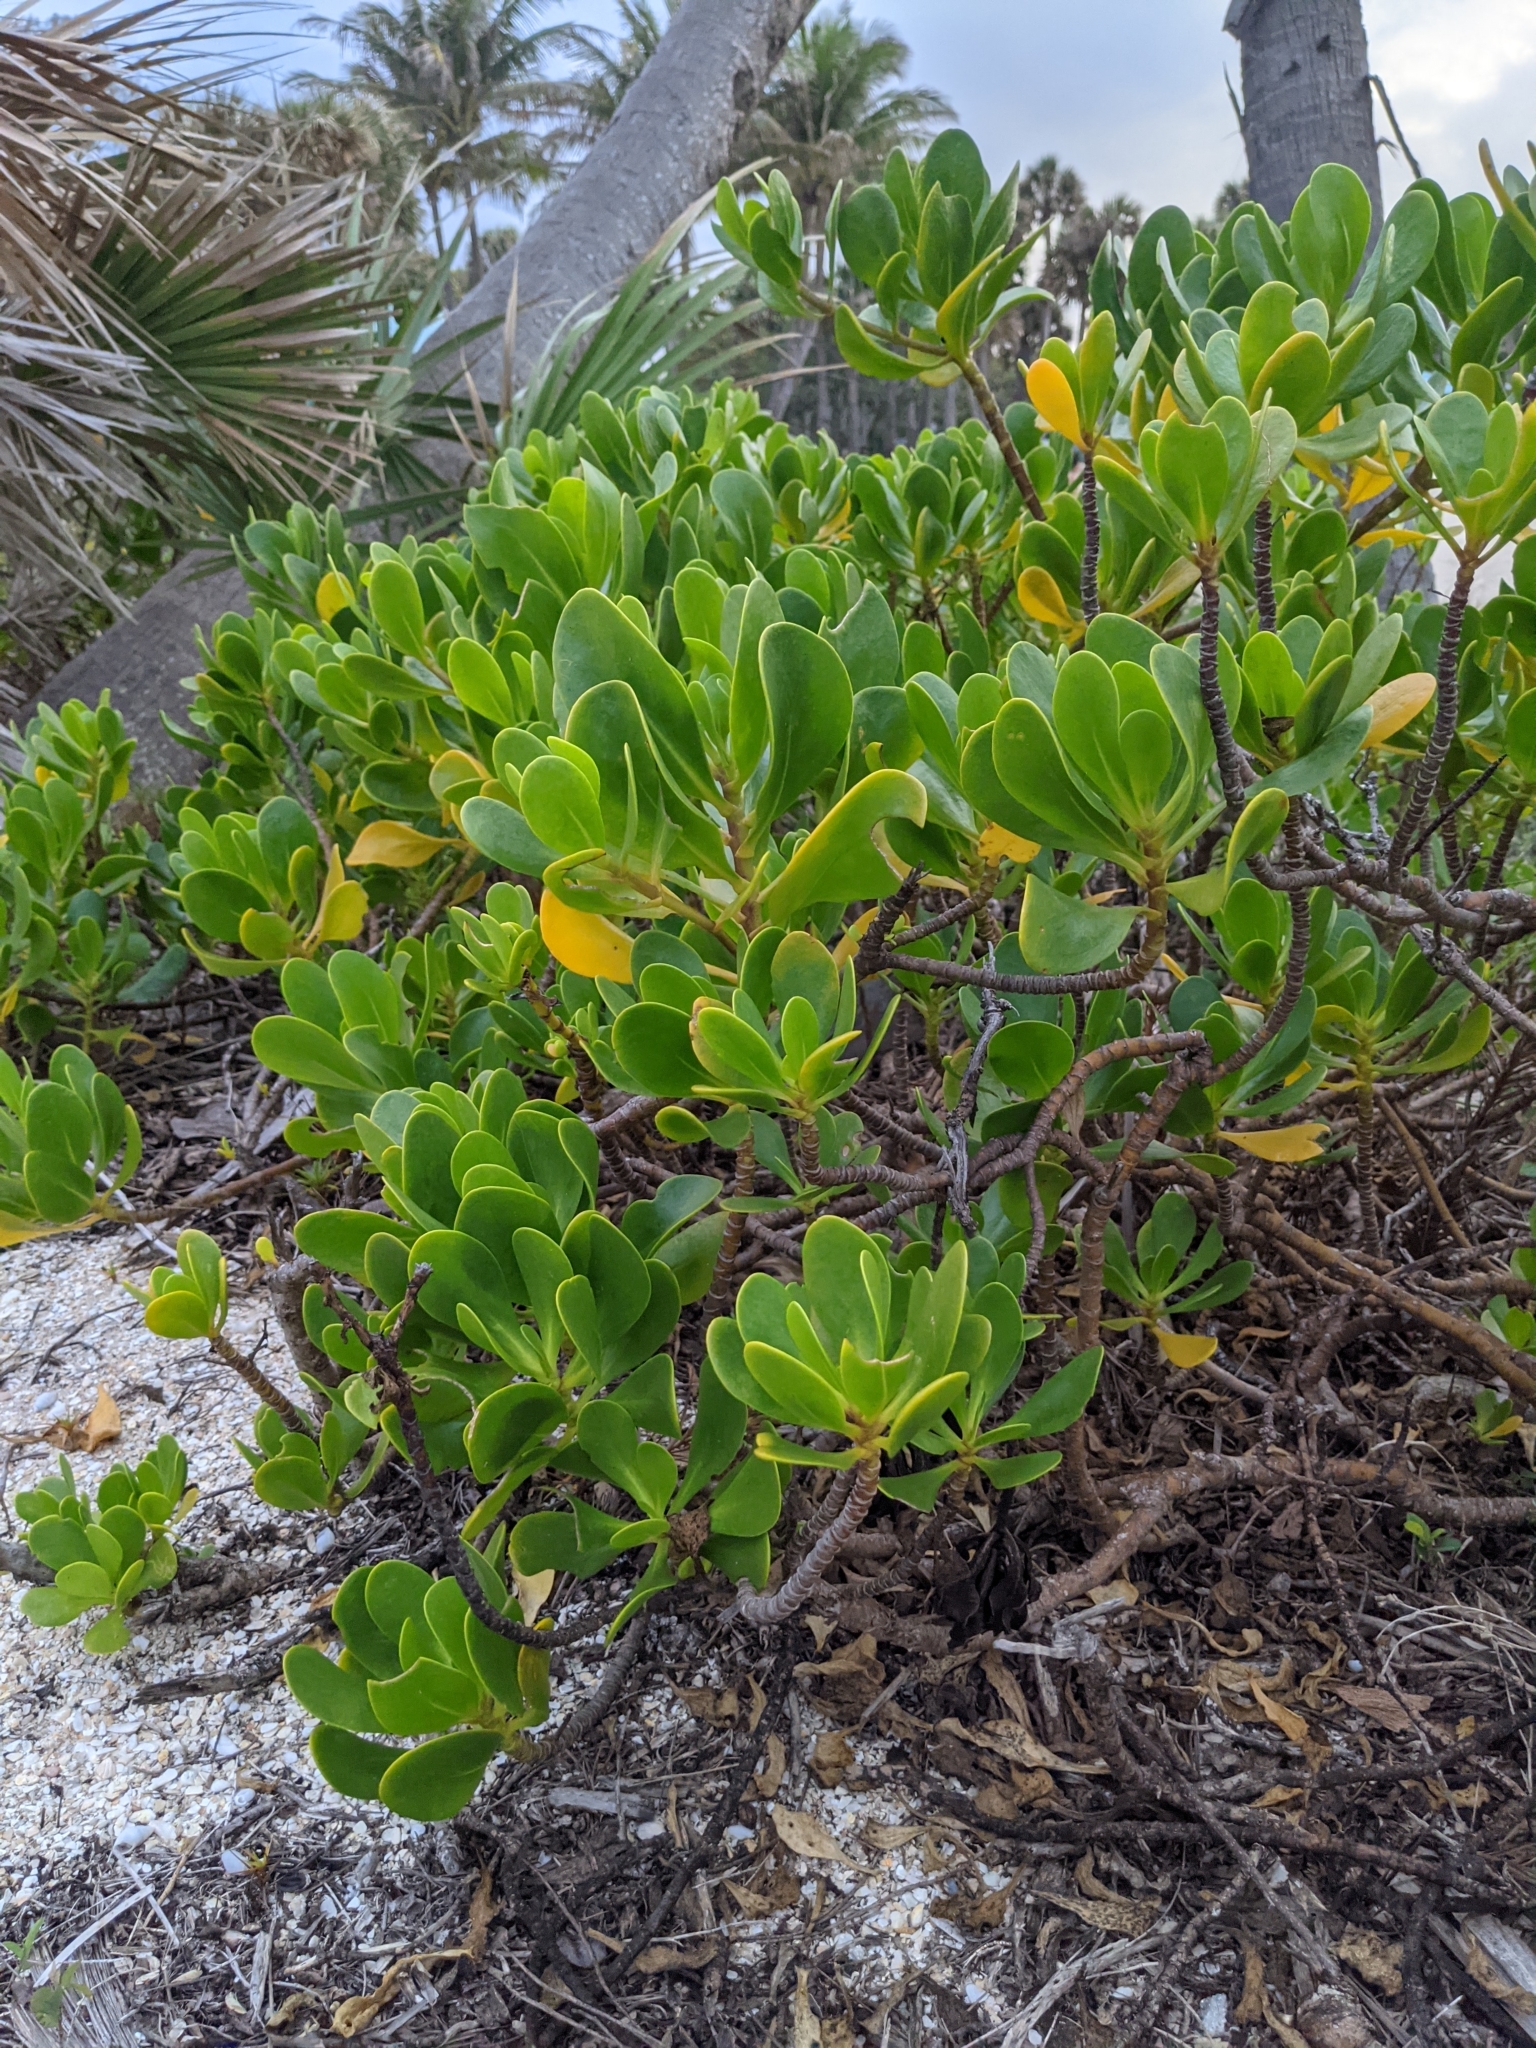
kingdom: Plantae
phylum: Tracheophyta
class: Magnoliopsida
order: Asterales
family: Goodeniaceae
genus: Scaevola
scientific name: Scaevola plumieri
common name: Gull feed
